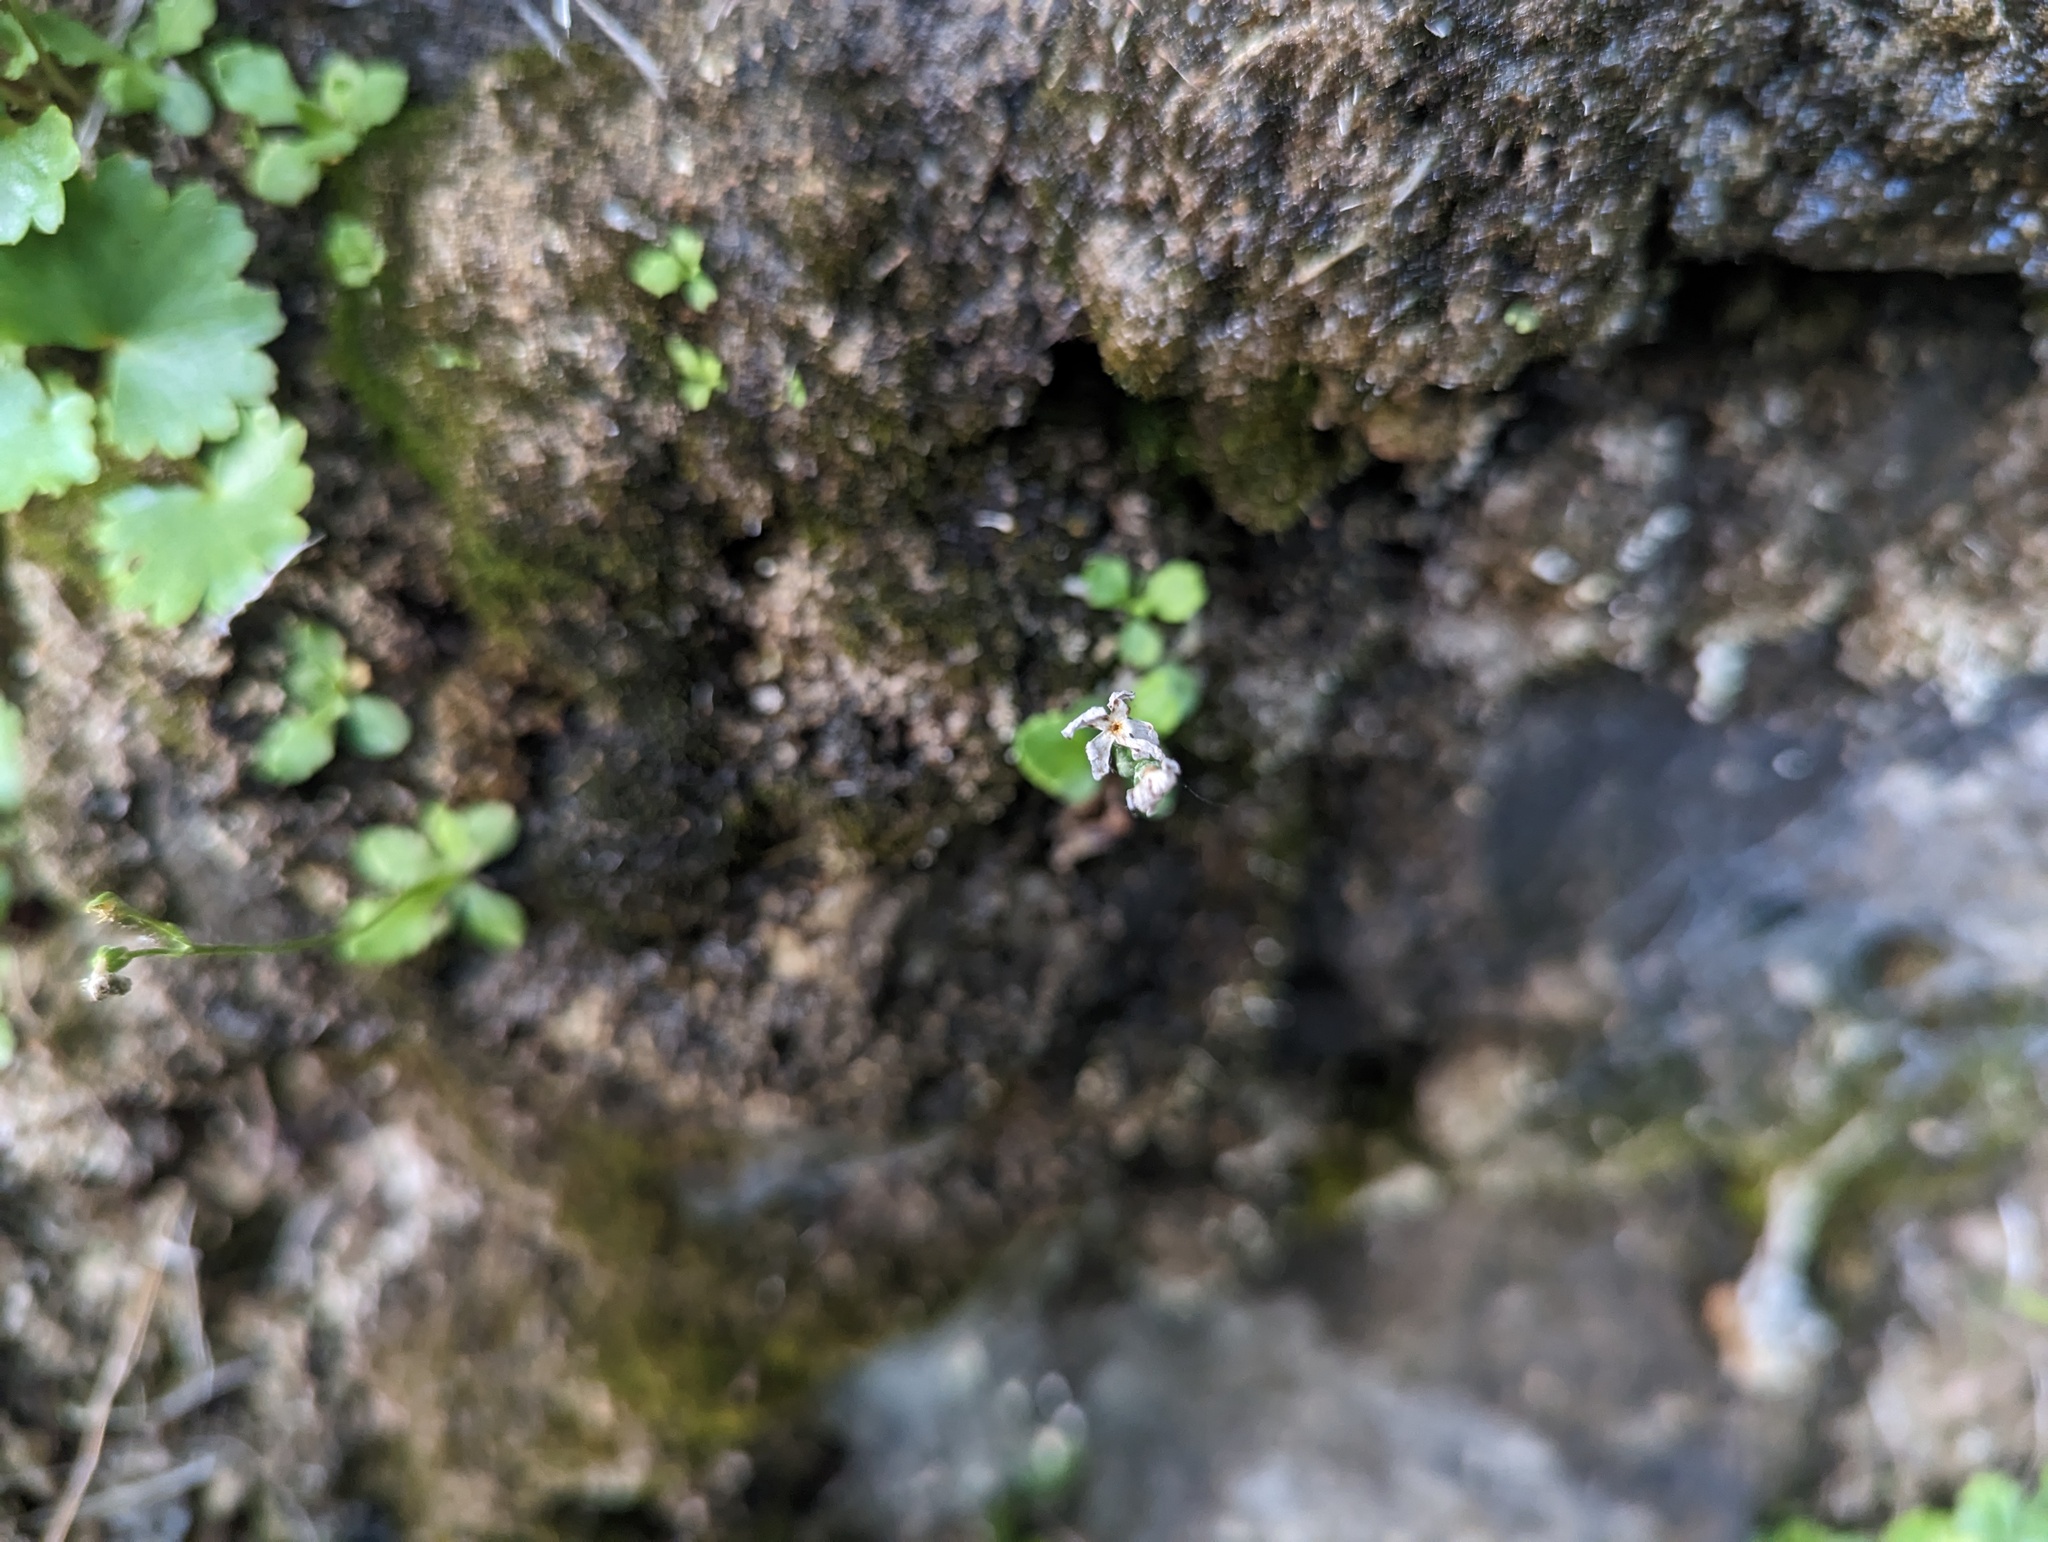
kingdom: Plantae
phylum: Tracheophyta
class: Magnoliopsida
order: Ericales
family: Primulaceae
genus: Primula
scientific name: Primula mistassinica
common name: Bird's-eye primrose
